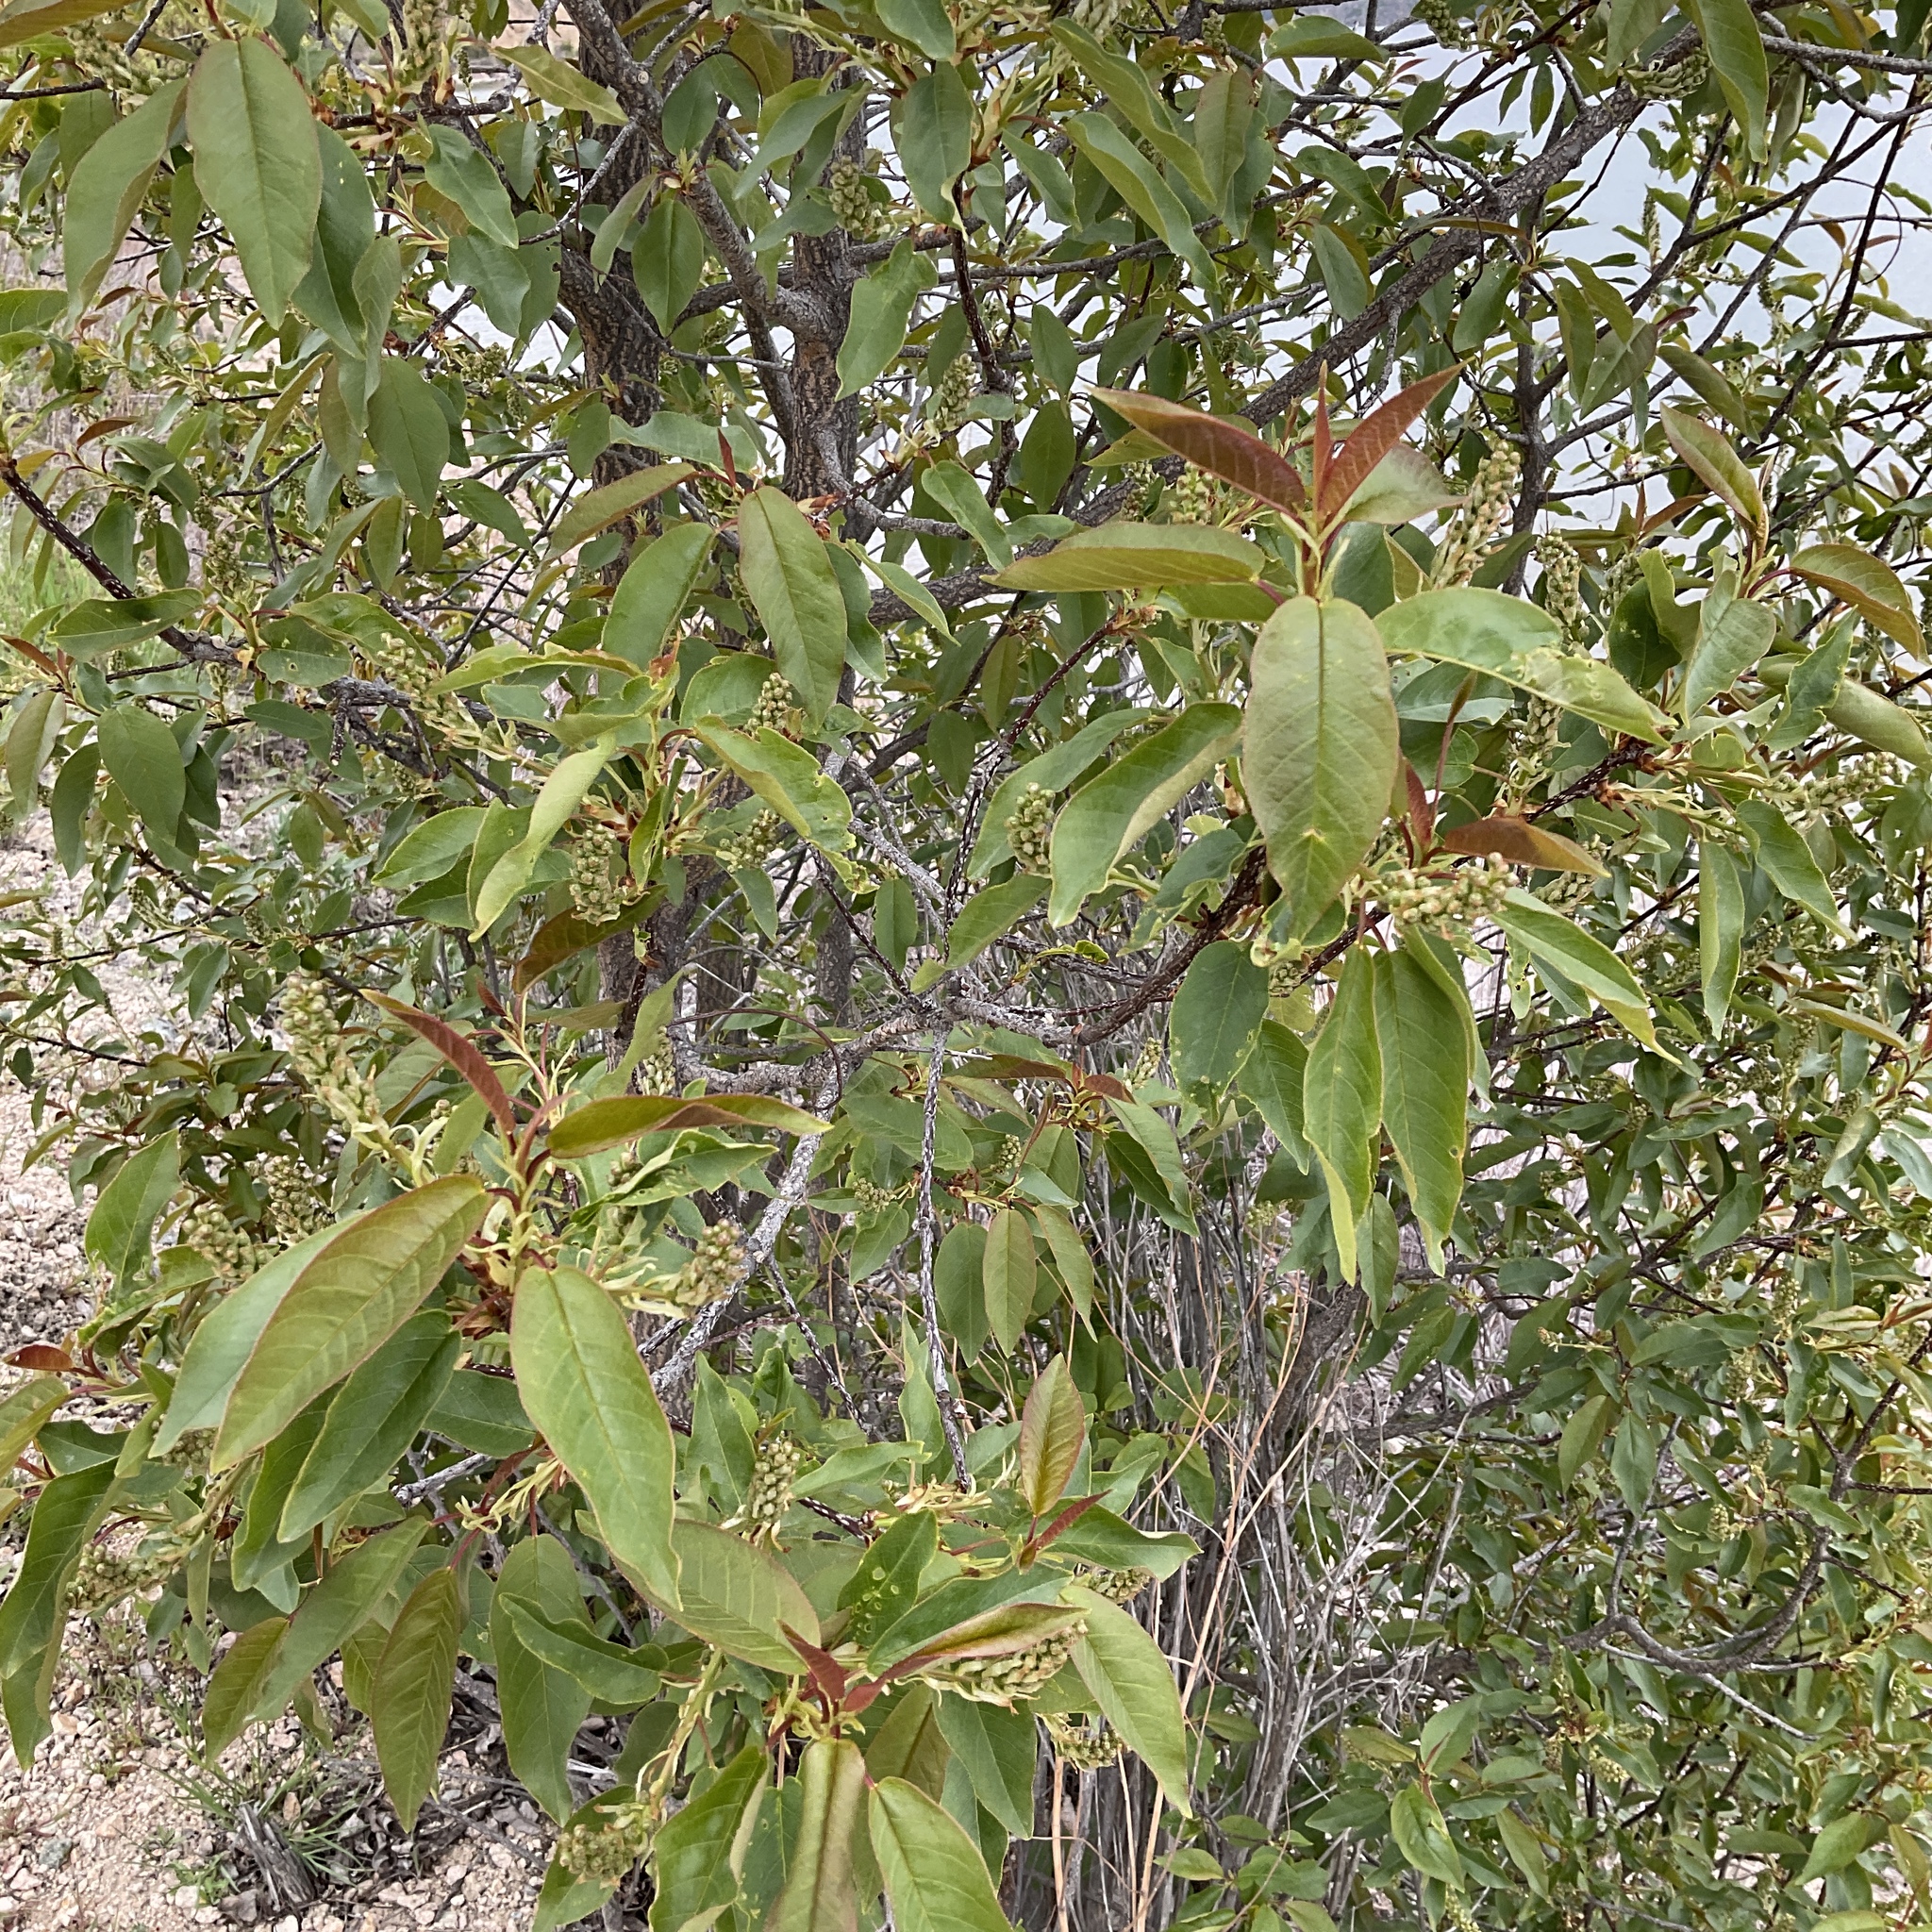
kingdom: Plantae
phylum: Tracheophyta
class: Magnoliopsida
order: Rosales
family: Rosaceae
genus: Prunus
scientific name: Prunus virginiana
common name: Chokecherry
